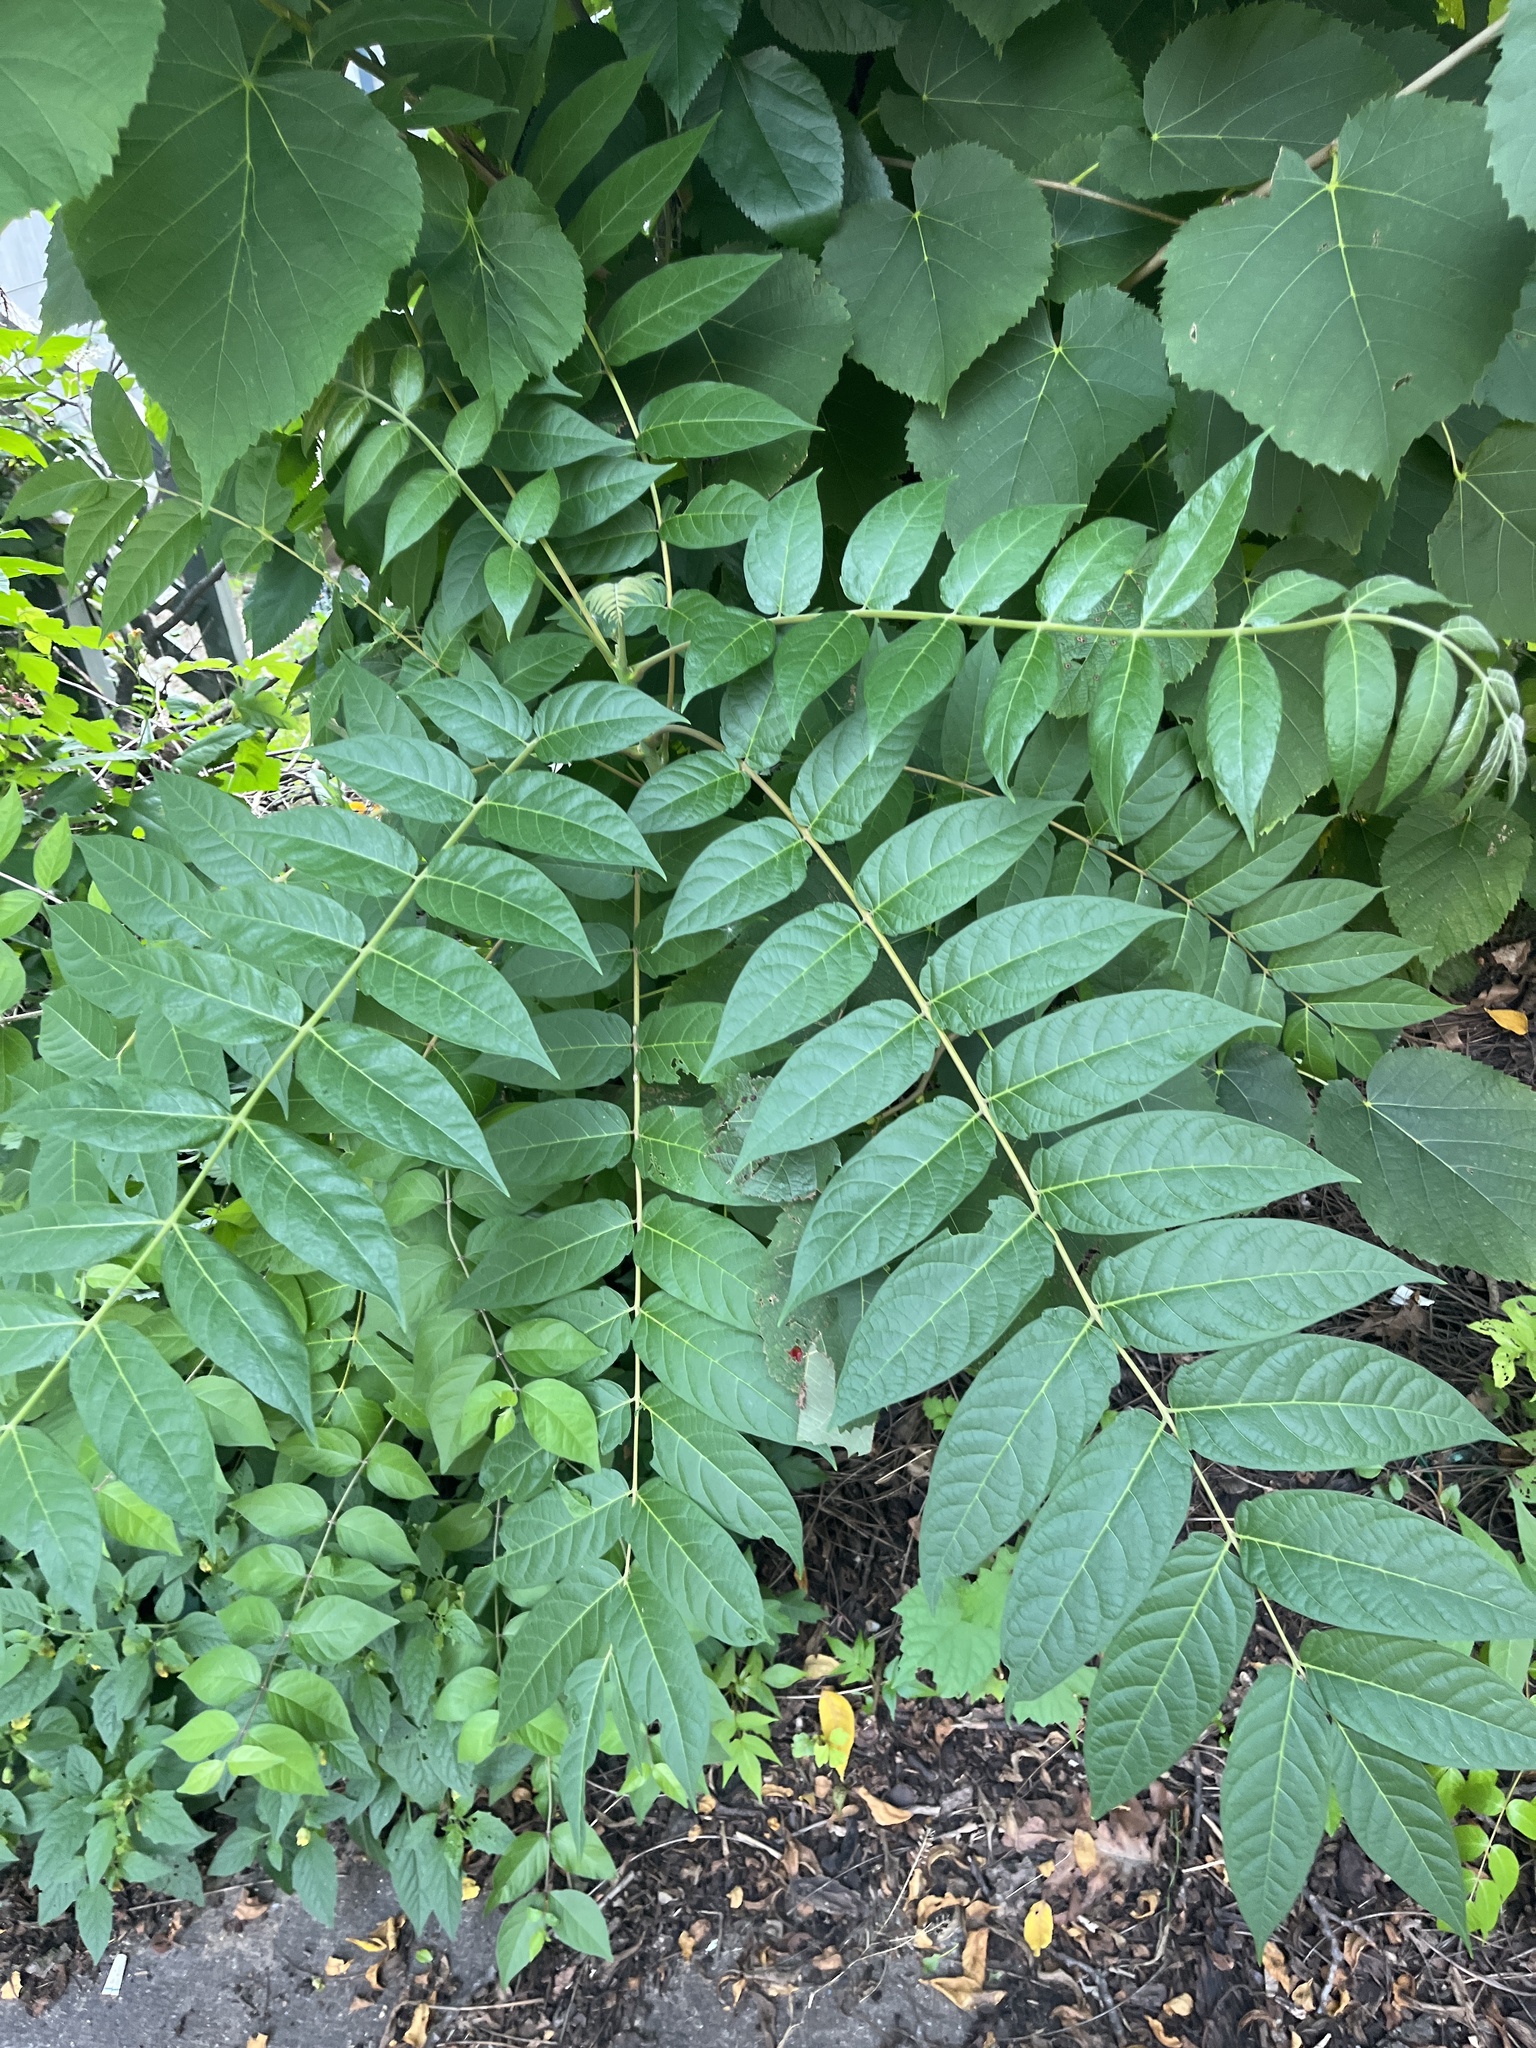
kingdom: Plantae
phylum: Tracheophyta
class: Magnoliopsida
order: Sapindales
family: Simaroubaceae
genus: Ailanthus
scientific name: Ailanthus altissima
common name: Tree-of-heaven
